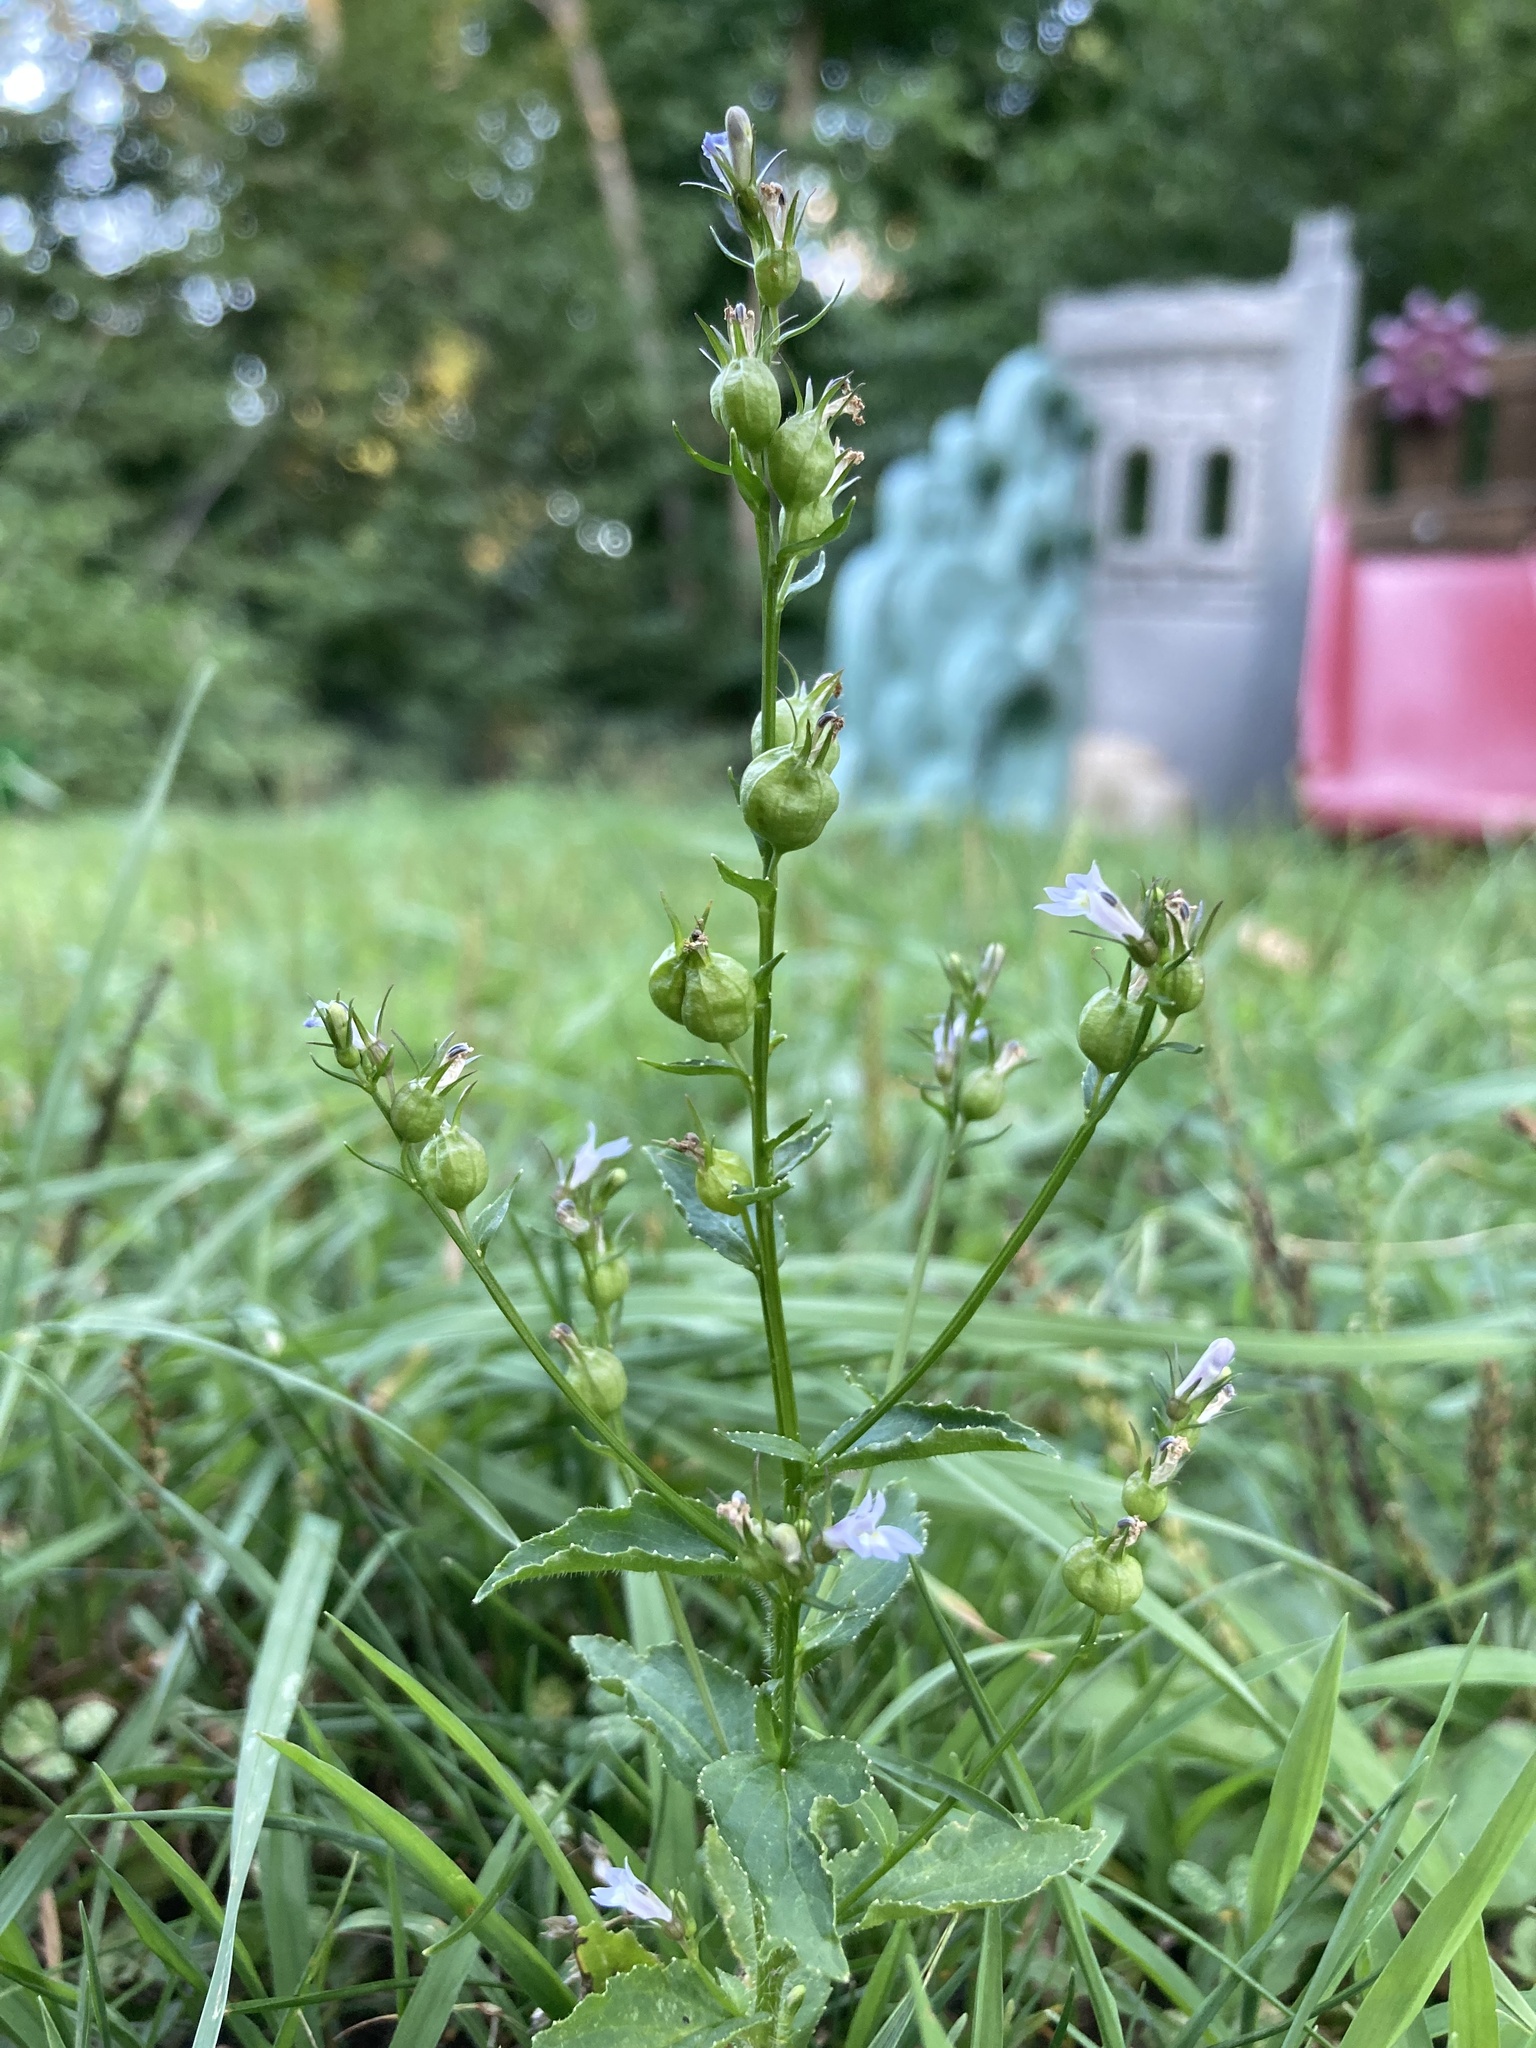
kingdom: Plantae
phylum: Tracheophyta
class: Magnoliopsida
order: Asterales
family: Campanulaceae
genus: Lobelia
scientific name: Lobelia inflata
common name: Indian tobacco
